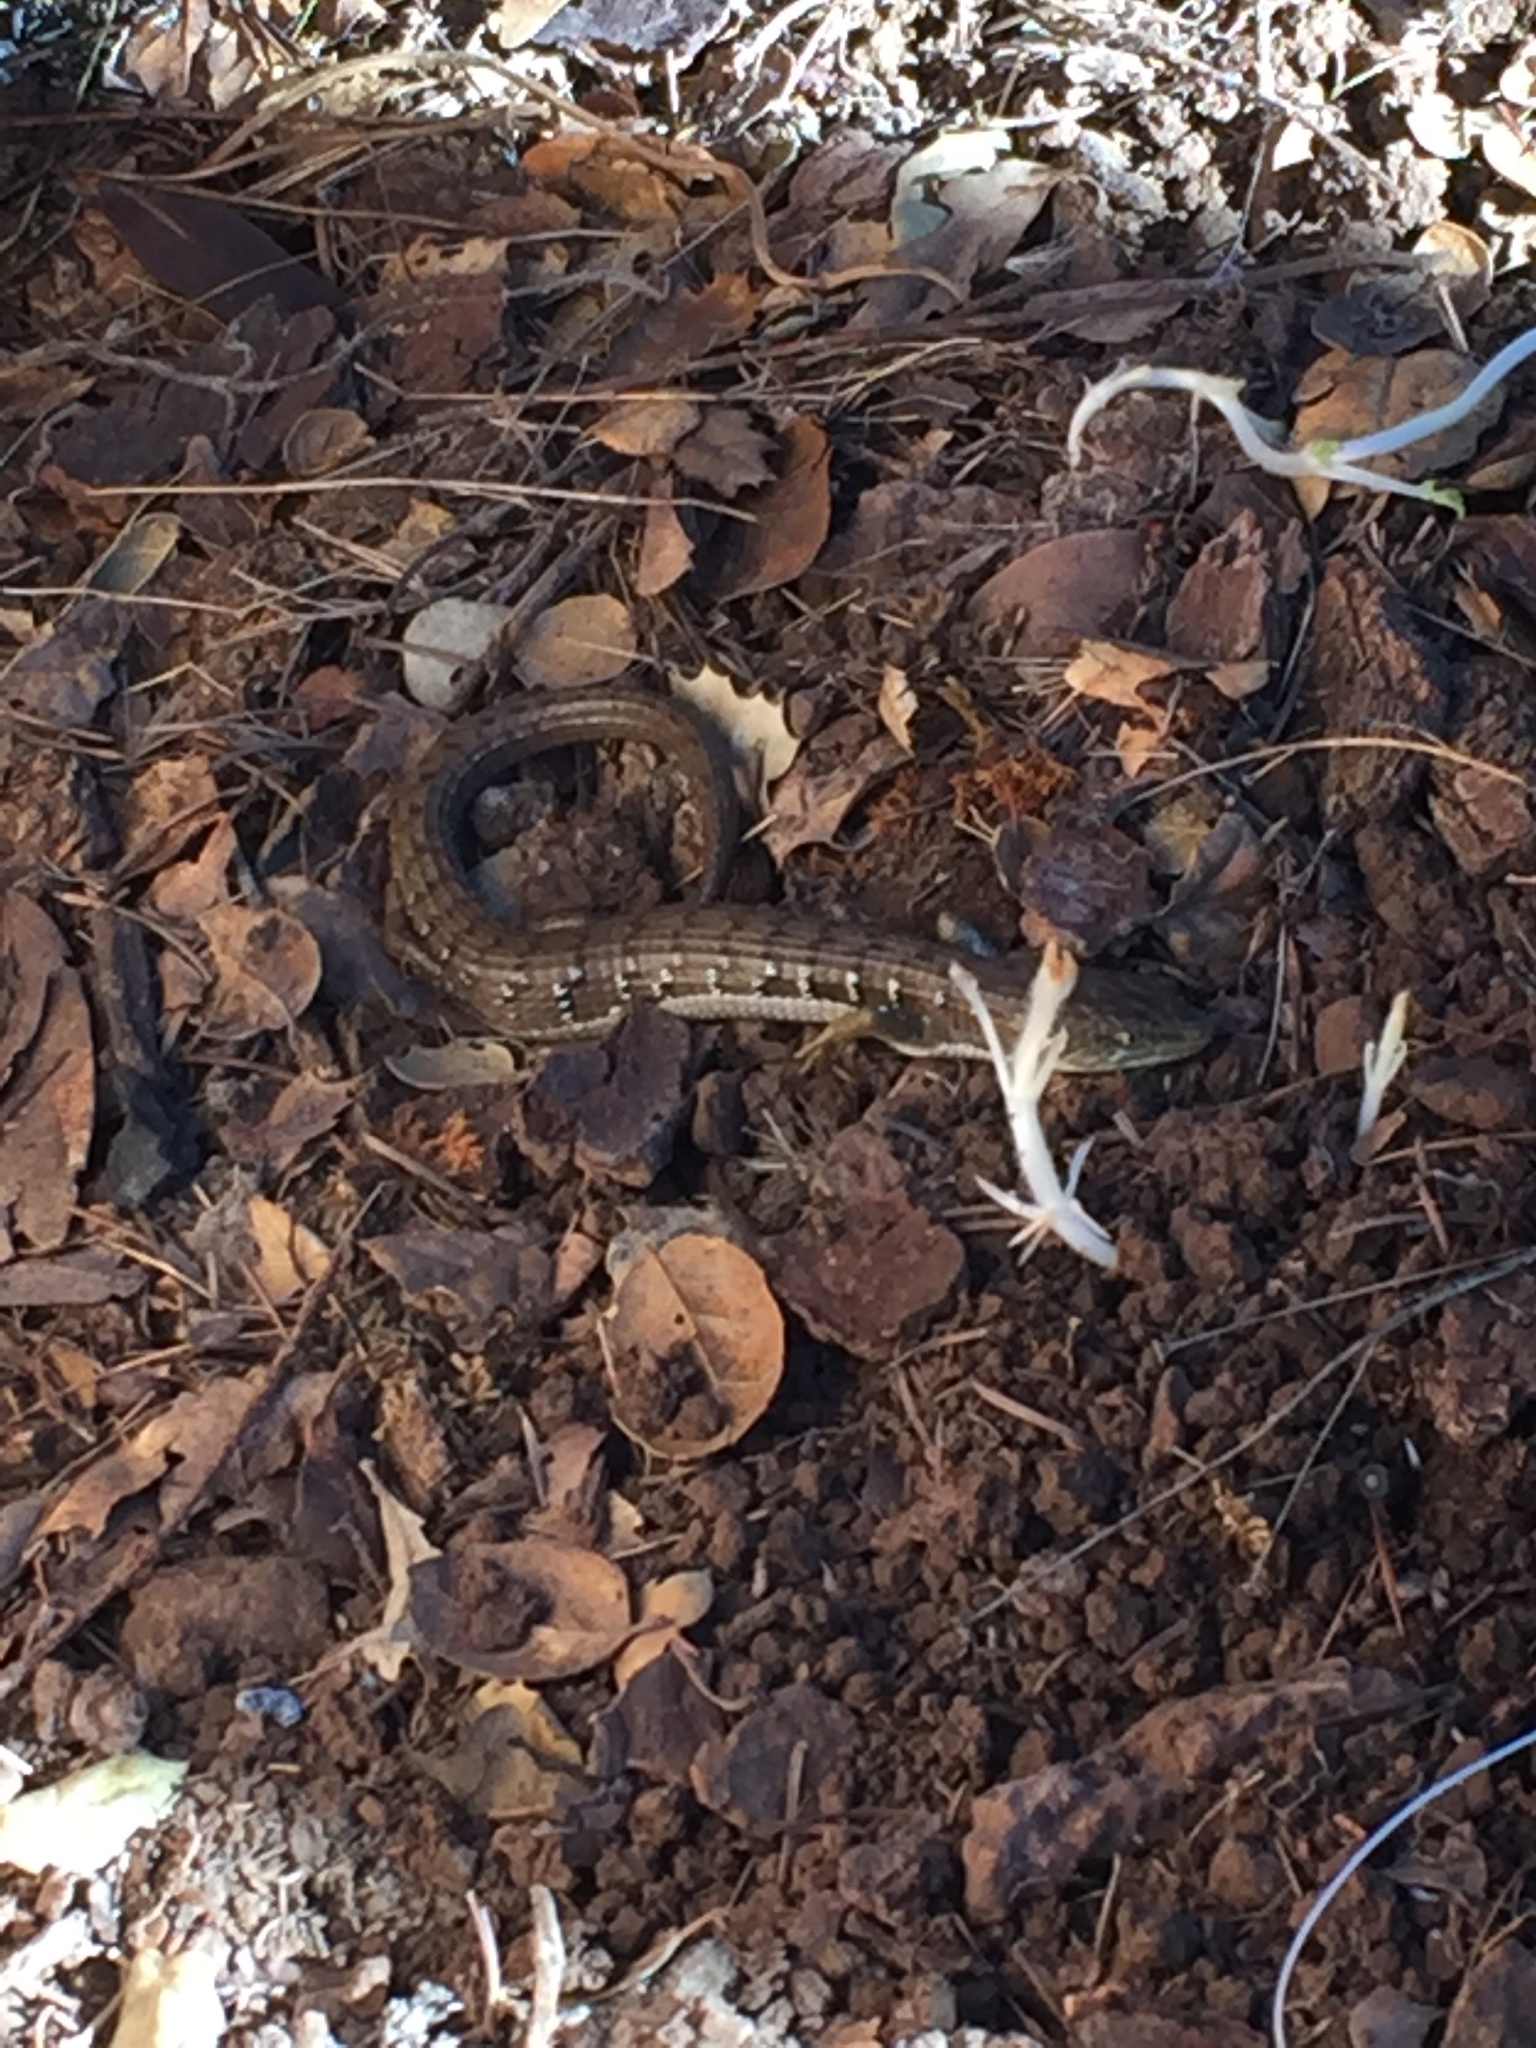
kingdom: Animalia
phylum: Chordata
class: Squamata
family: Anguidae
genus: Elgaria
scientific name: Elgaria multicarinata
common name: Southern alligator lizard
